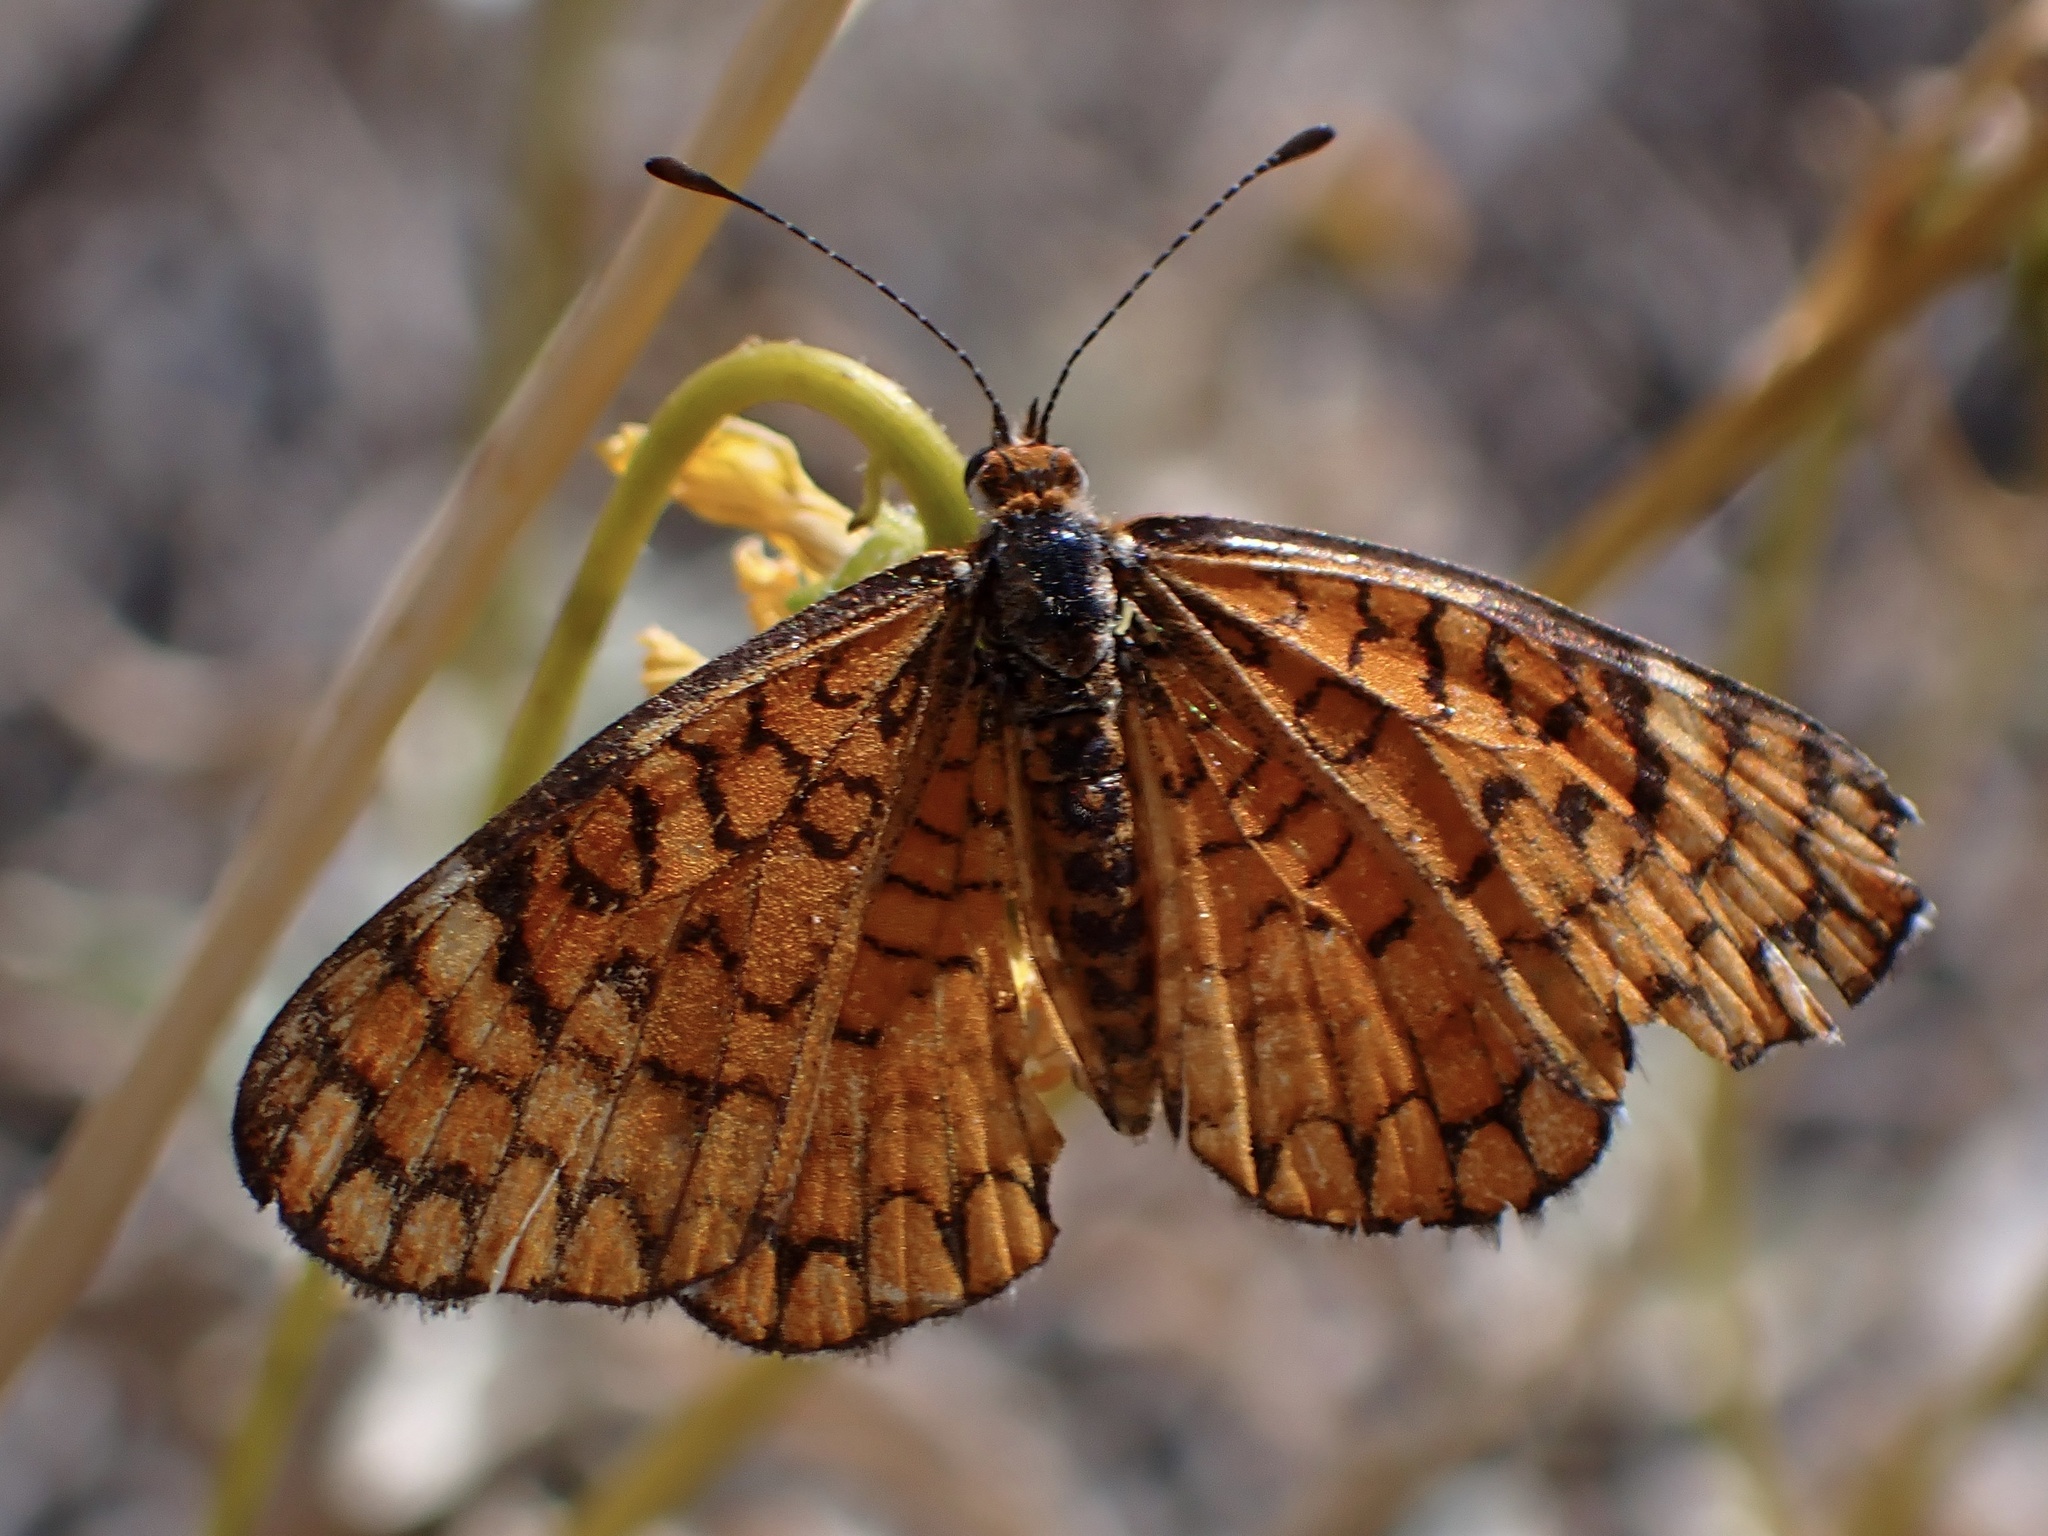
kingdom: Animalia
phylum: Arthropoda
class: Insecta
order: Lepidoptera
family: Nymphalidae
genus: Dymasia
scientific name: Dymasia dymas
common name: Tiny checkerspot
